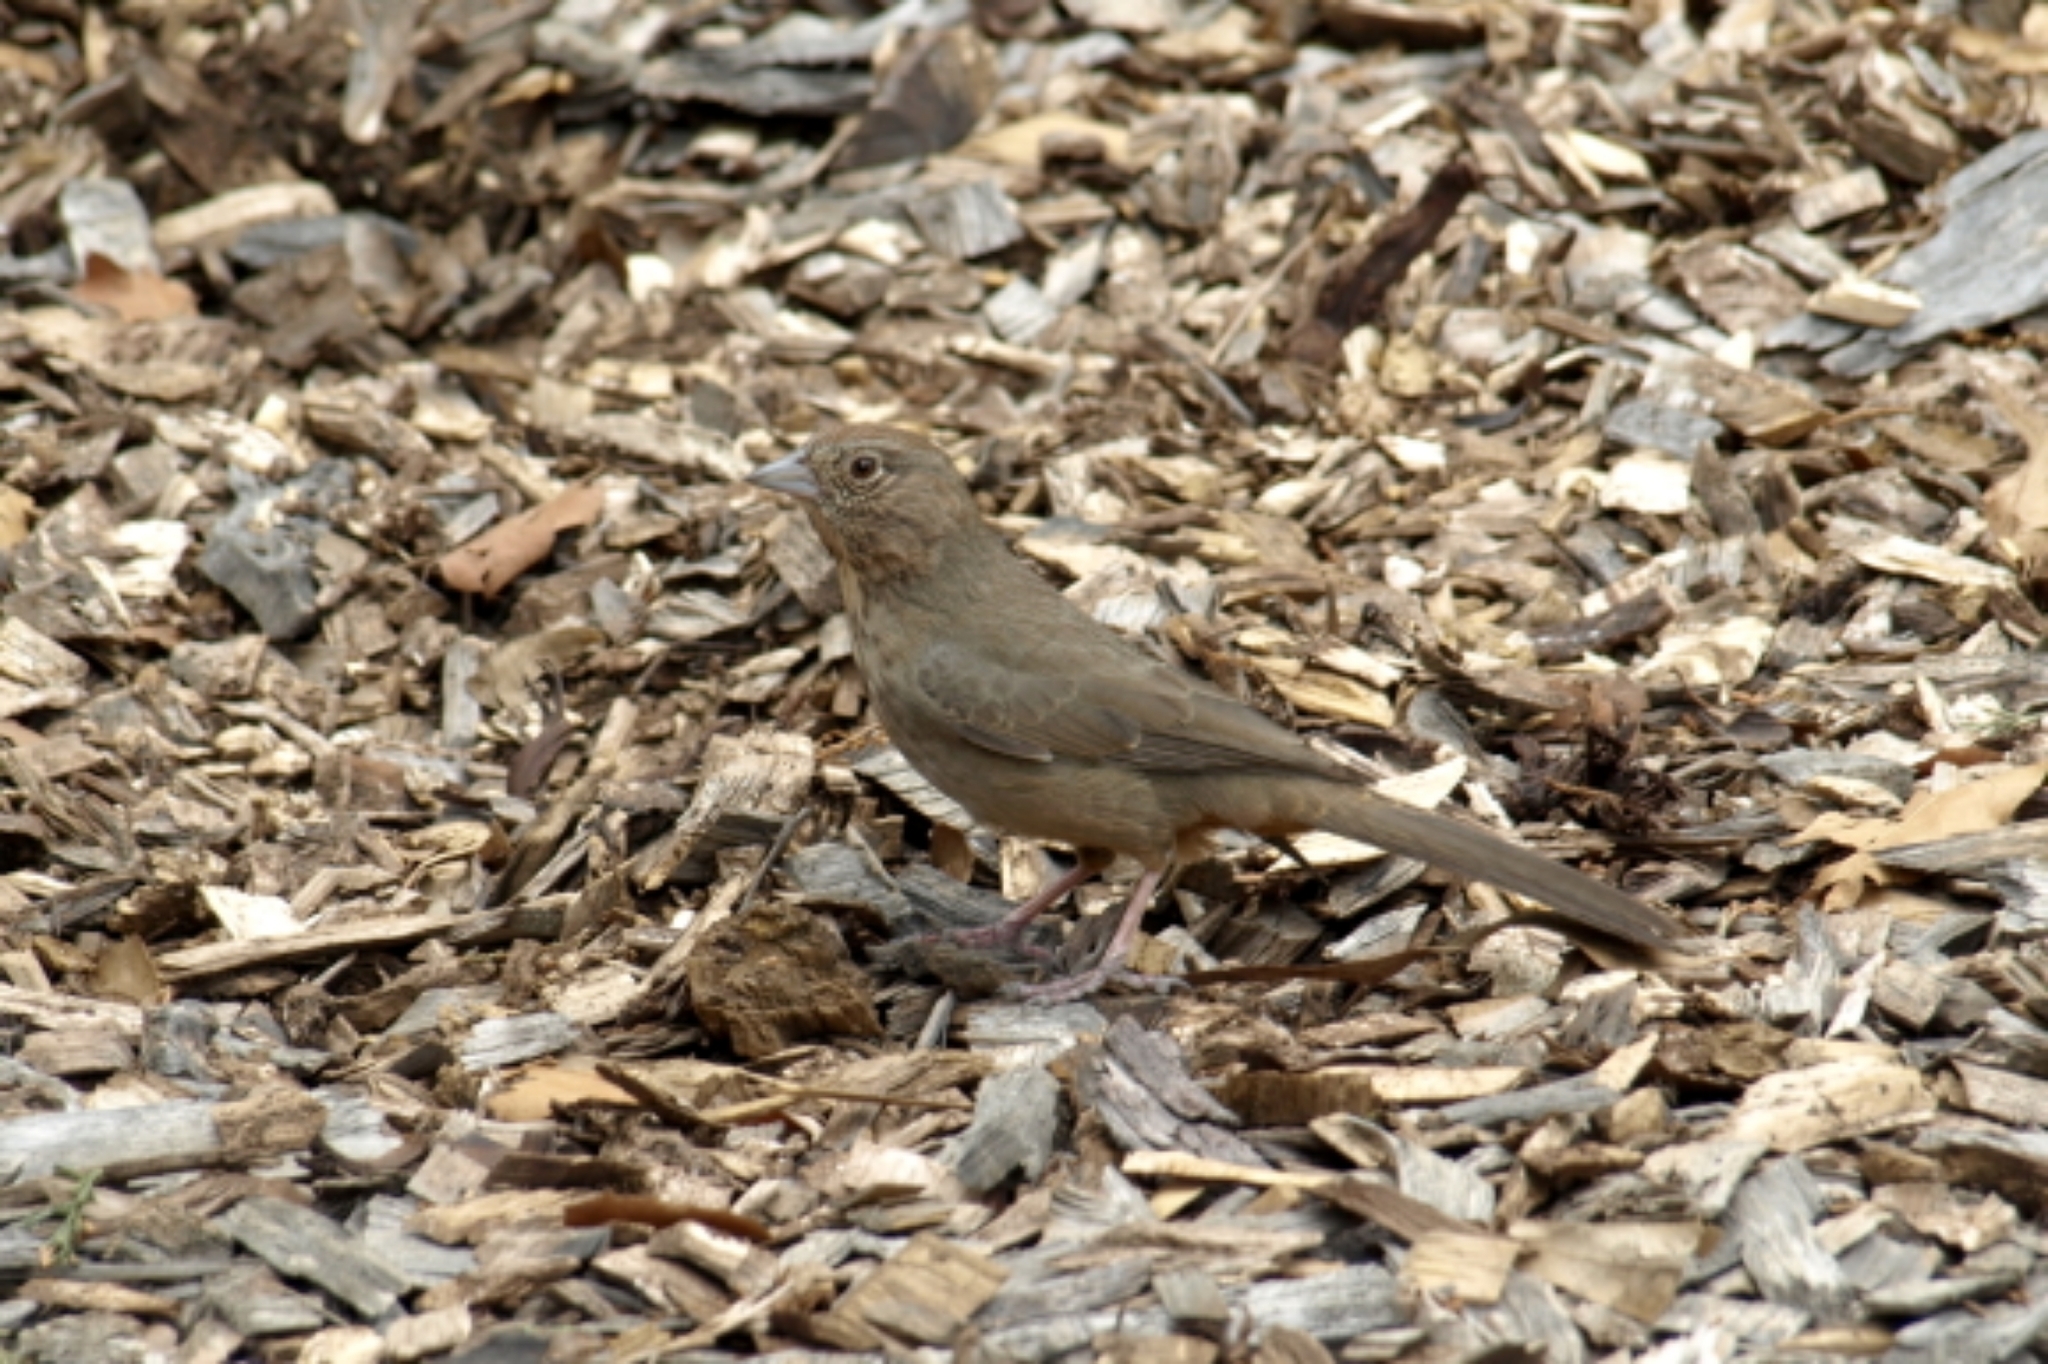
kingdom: Animalia
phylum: Chordata
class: Aves
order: Passeriformes
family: Passerellidae
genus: Melozone
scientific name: Melozone fusca
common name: Canyon towhee
